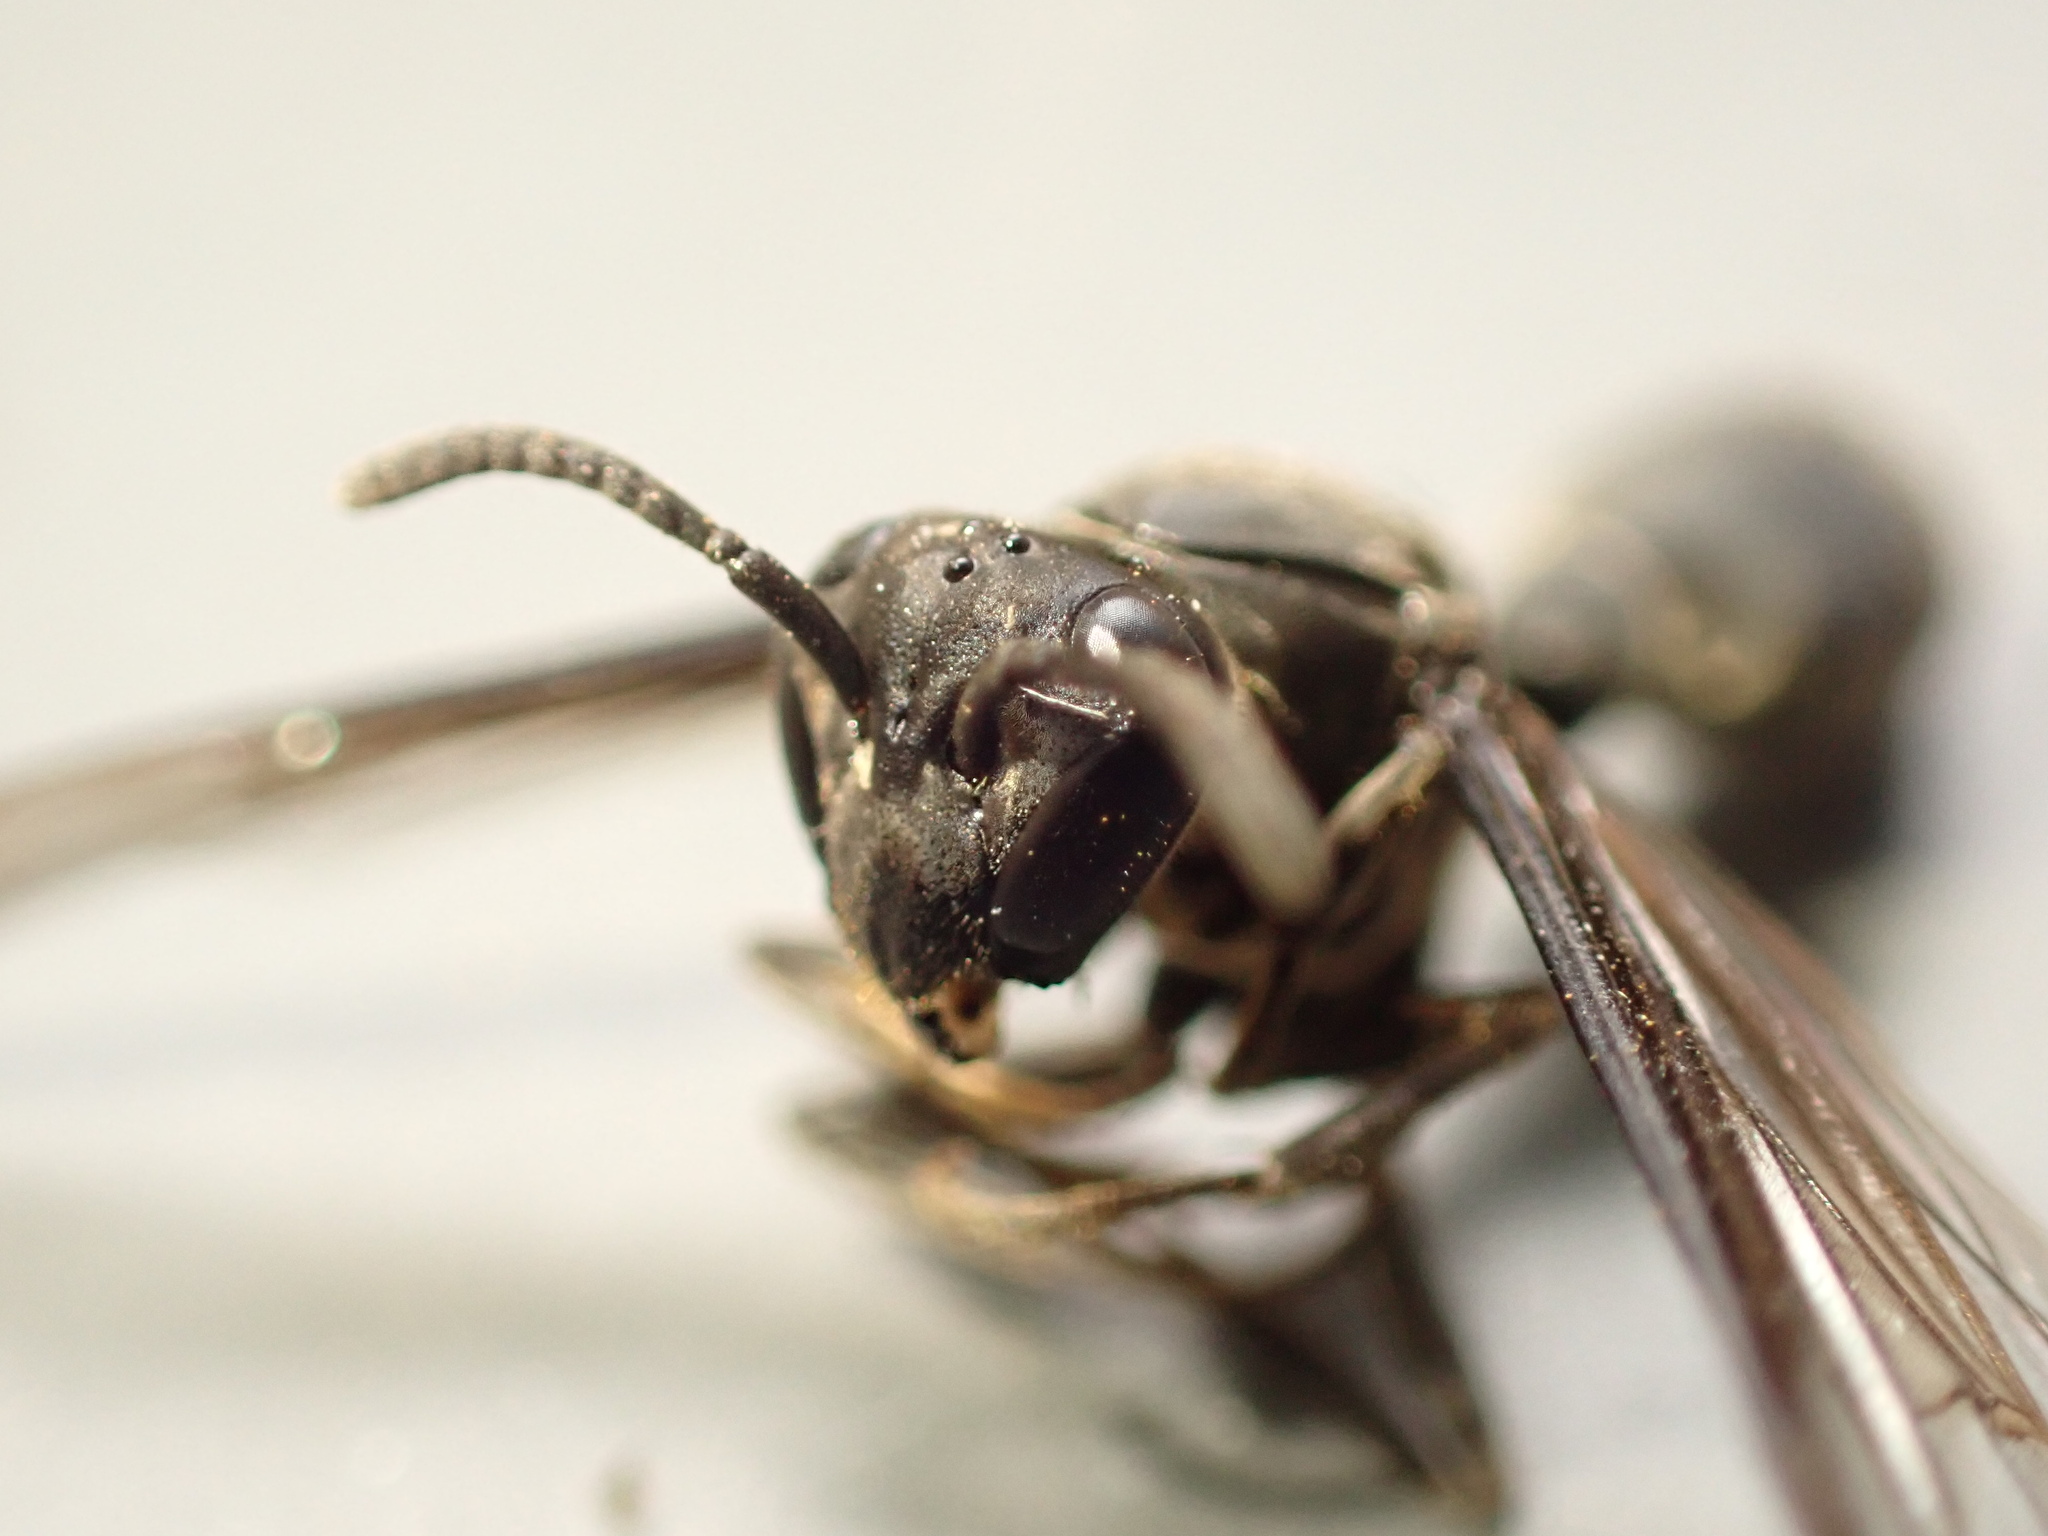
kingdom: Animalia
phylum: Arthropoda
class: Insecta
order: Hymenoptera
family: Eumenidae
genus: Polybia
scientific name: Polybia ignobilis
